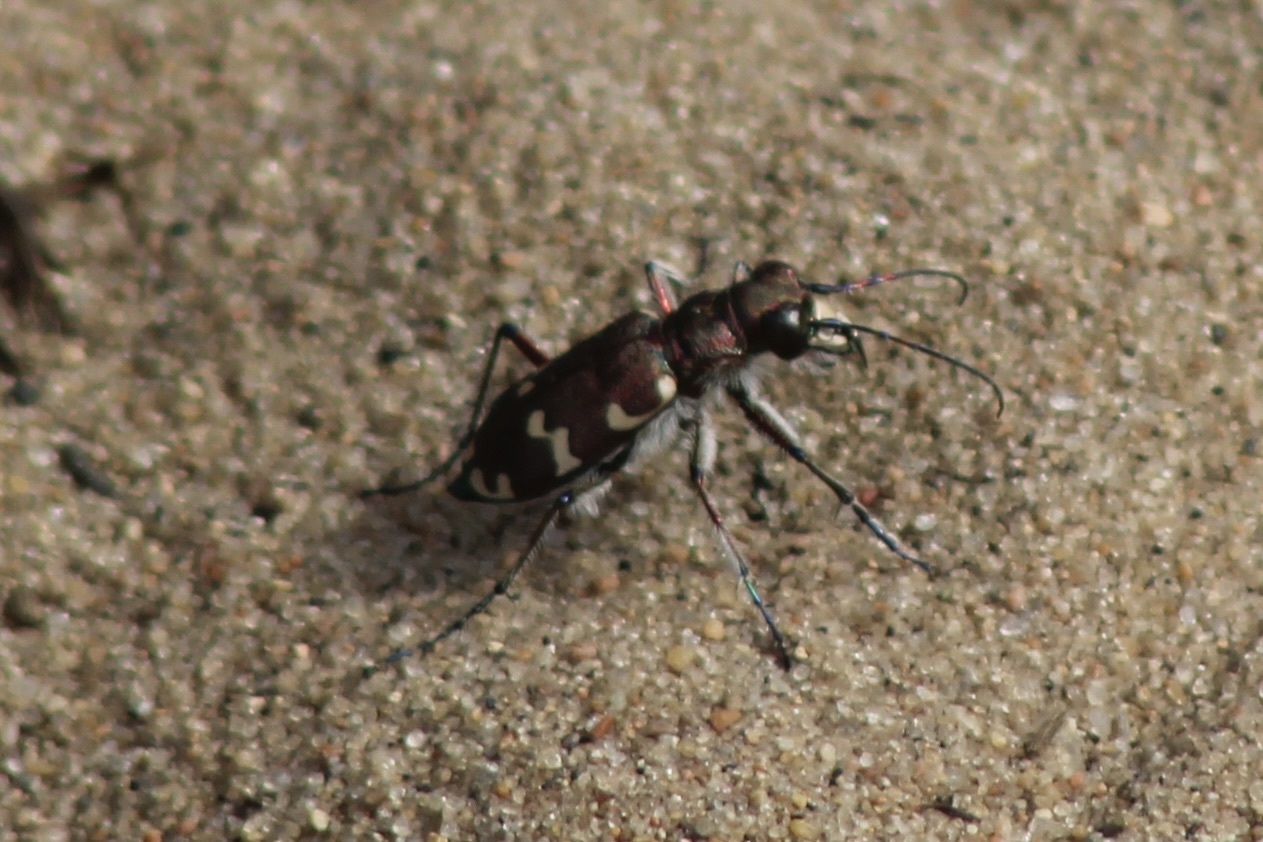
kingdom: Animalia
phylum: Arthropoda
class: Insecta
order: Coleoptera
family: Carabidae
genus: Cicindela
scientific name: Cicindela hybrida
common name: Northern dune tiger beetle
